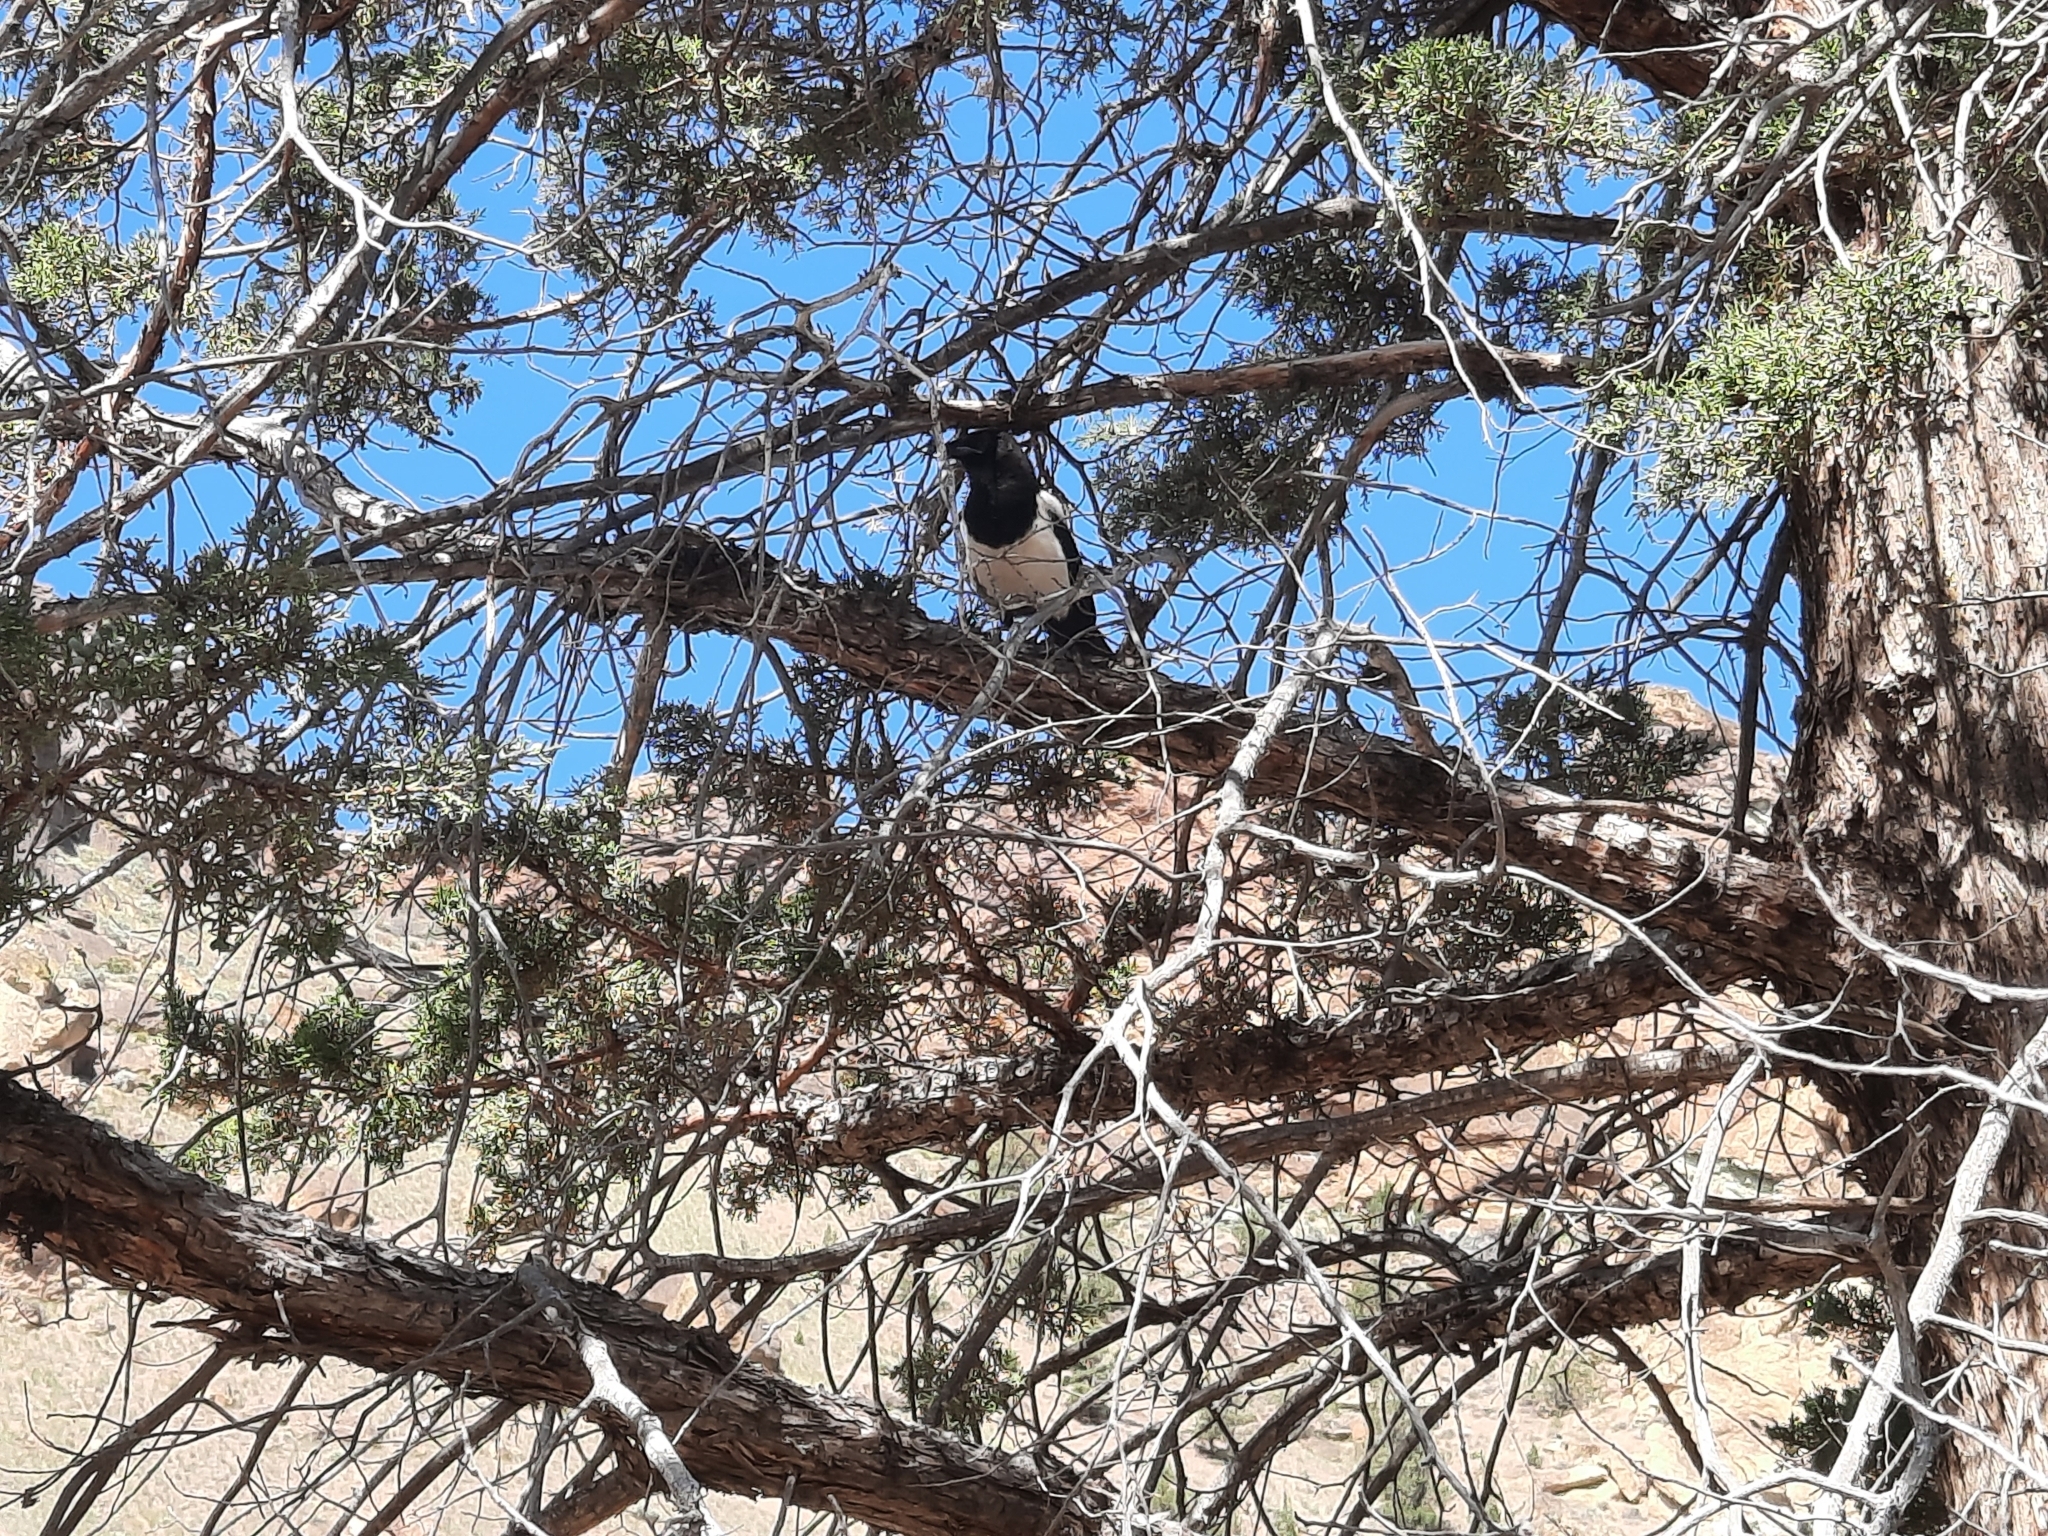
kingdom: Animalia
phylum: Chordata
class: Aves
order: Passeriformes
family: Corvidae
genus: Pica
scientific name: Pica hudsonia
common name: Black-billed magpie
